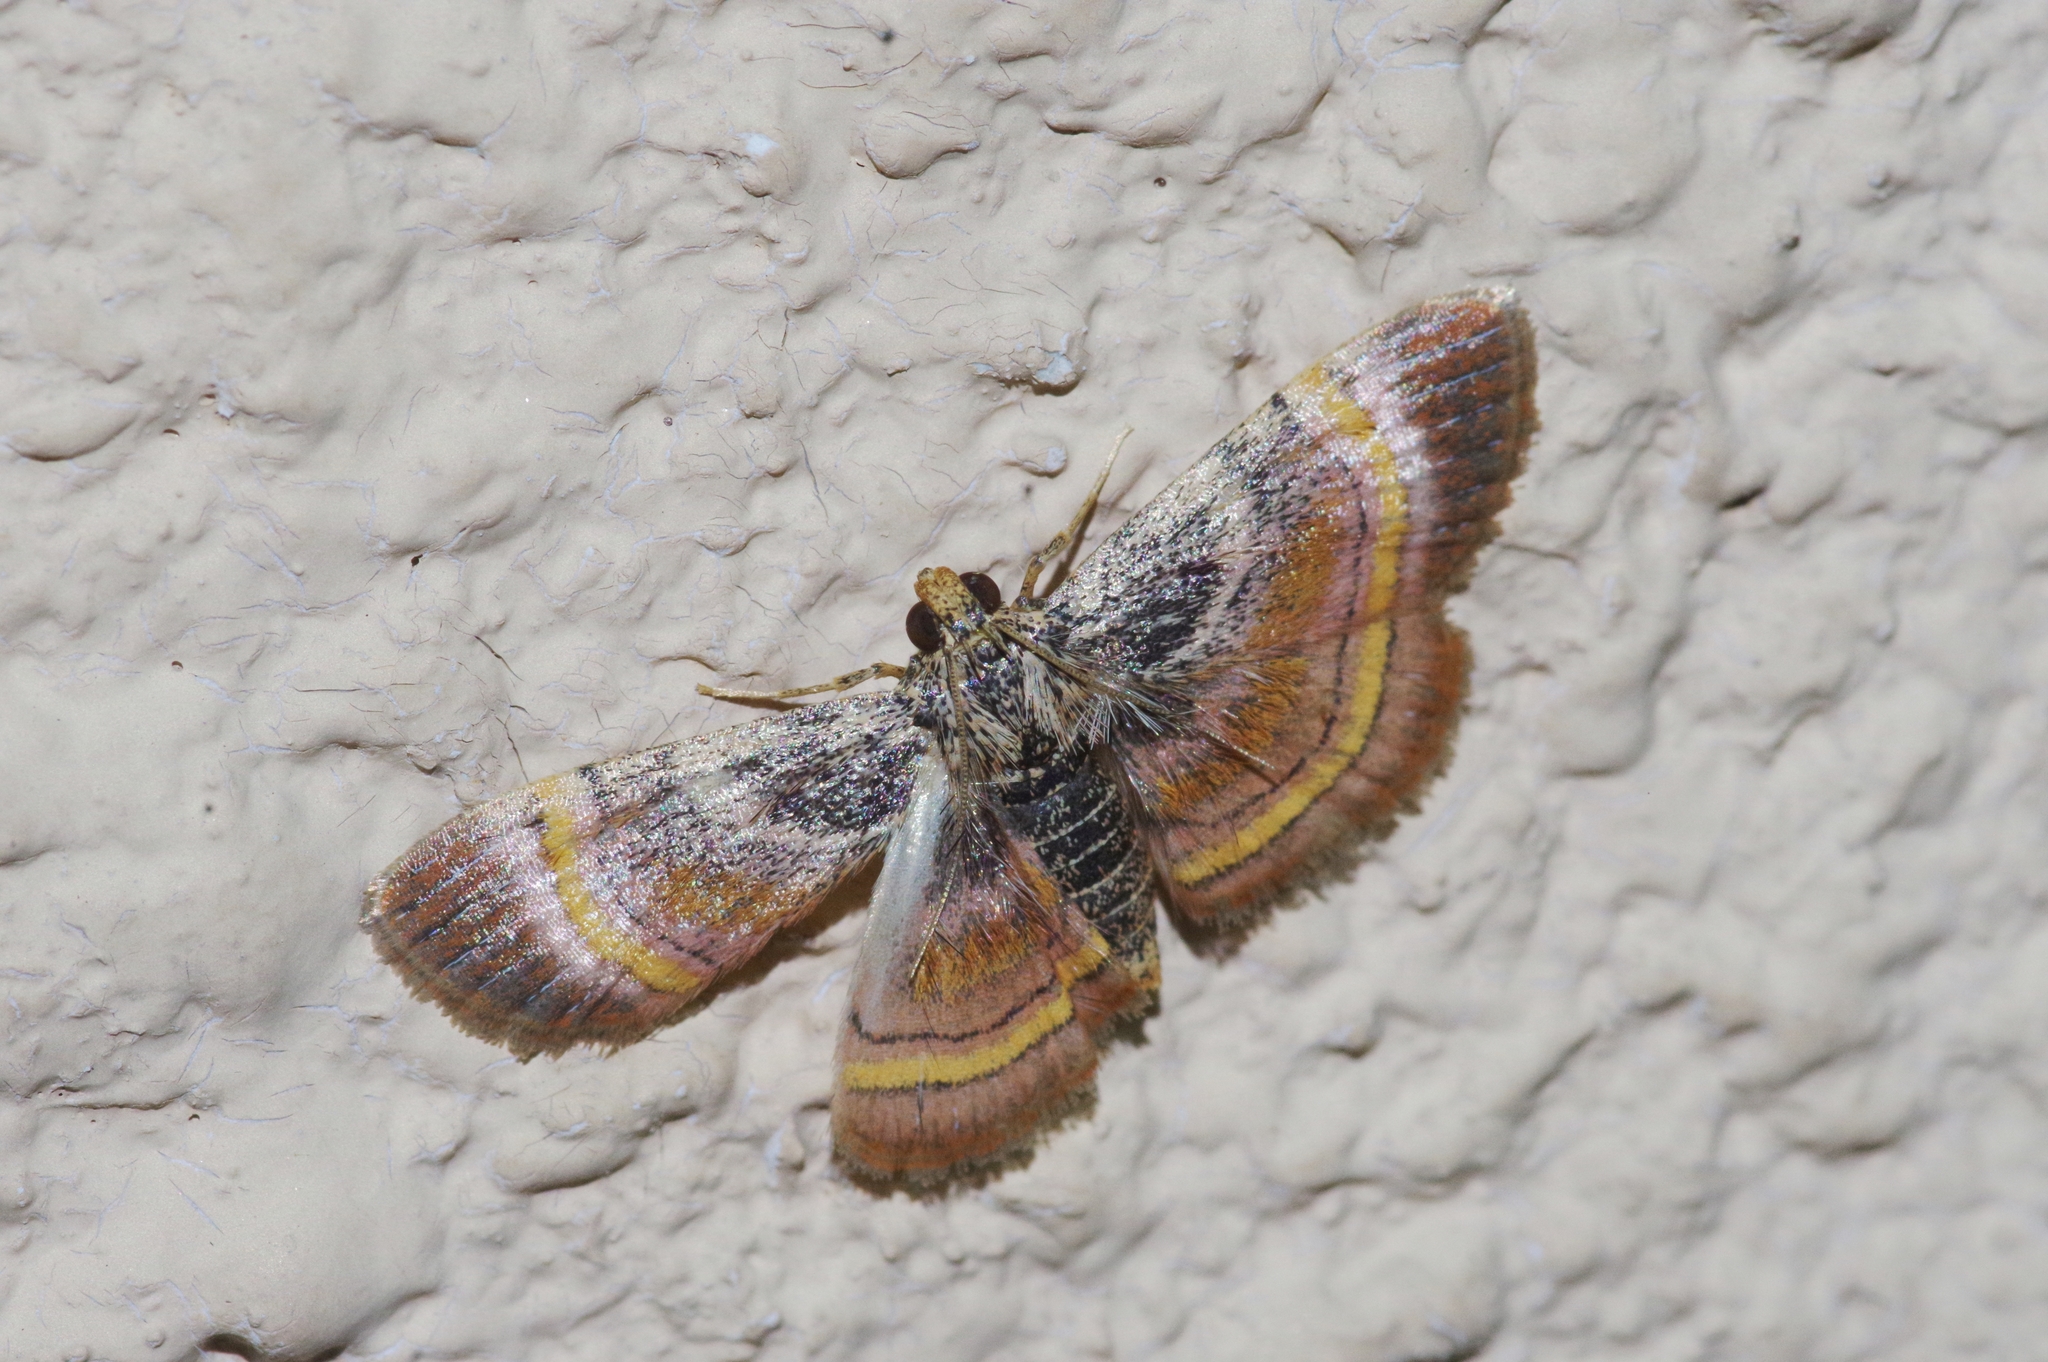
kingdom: Animalia
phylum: Arthropoda
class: Insecta
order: Lepidoptera
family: Pyralidae
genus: Lista
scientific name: Lista ficki
